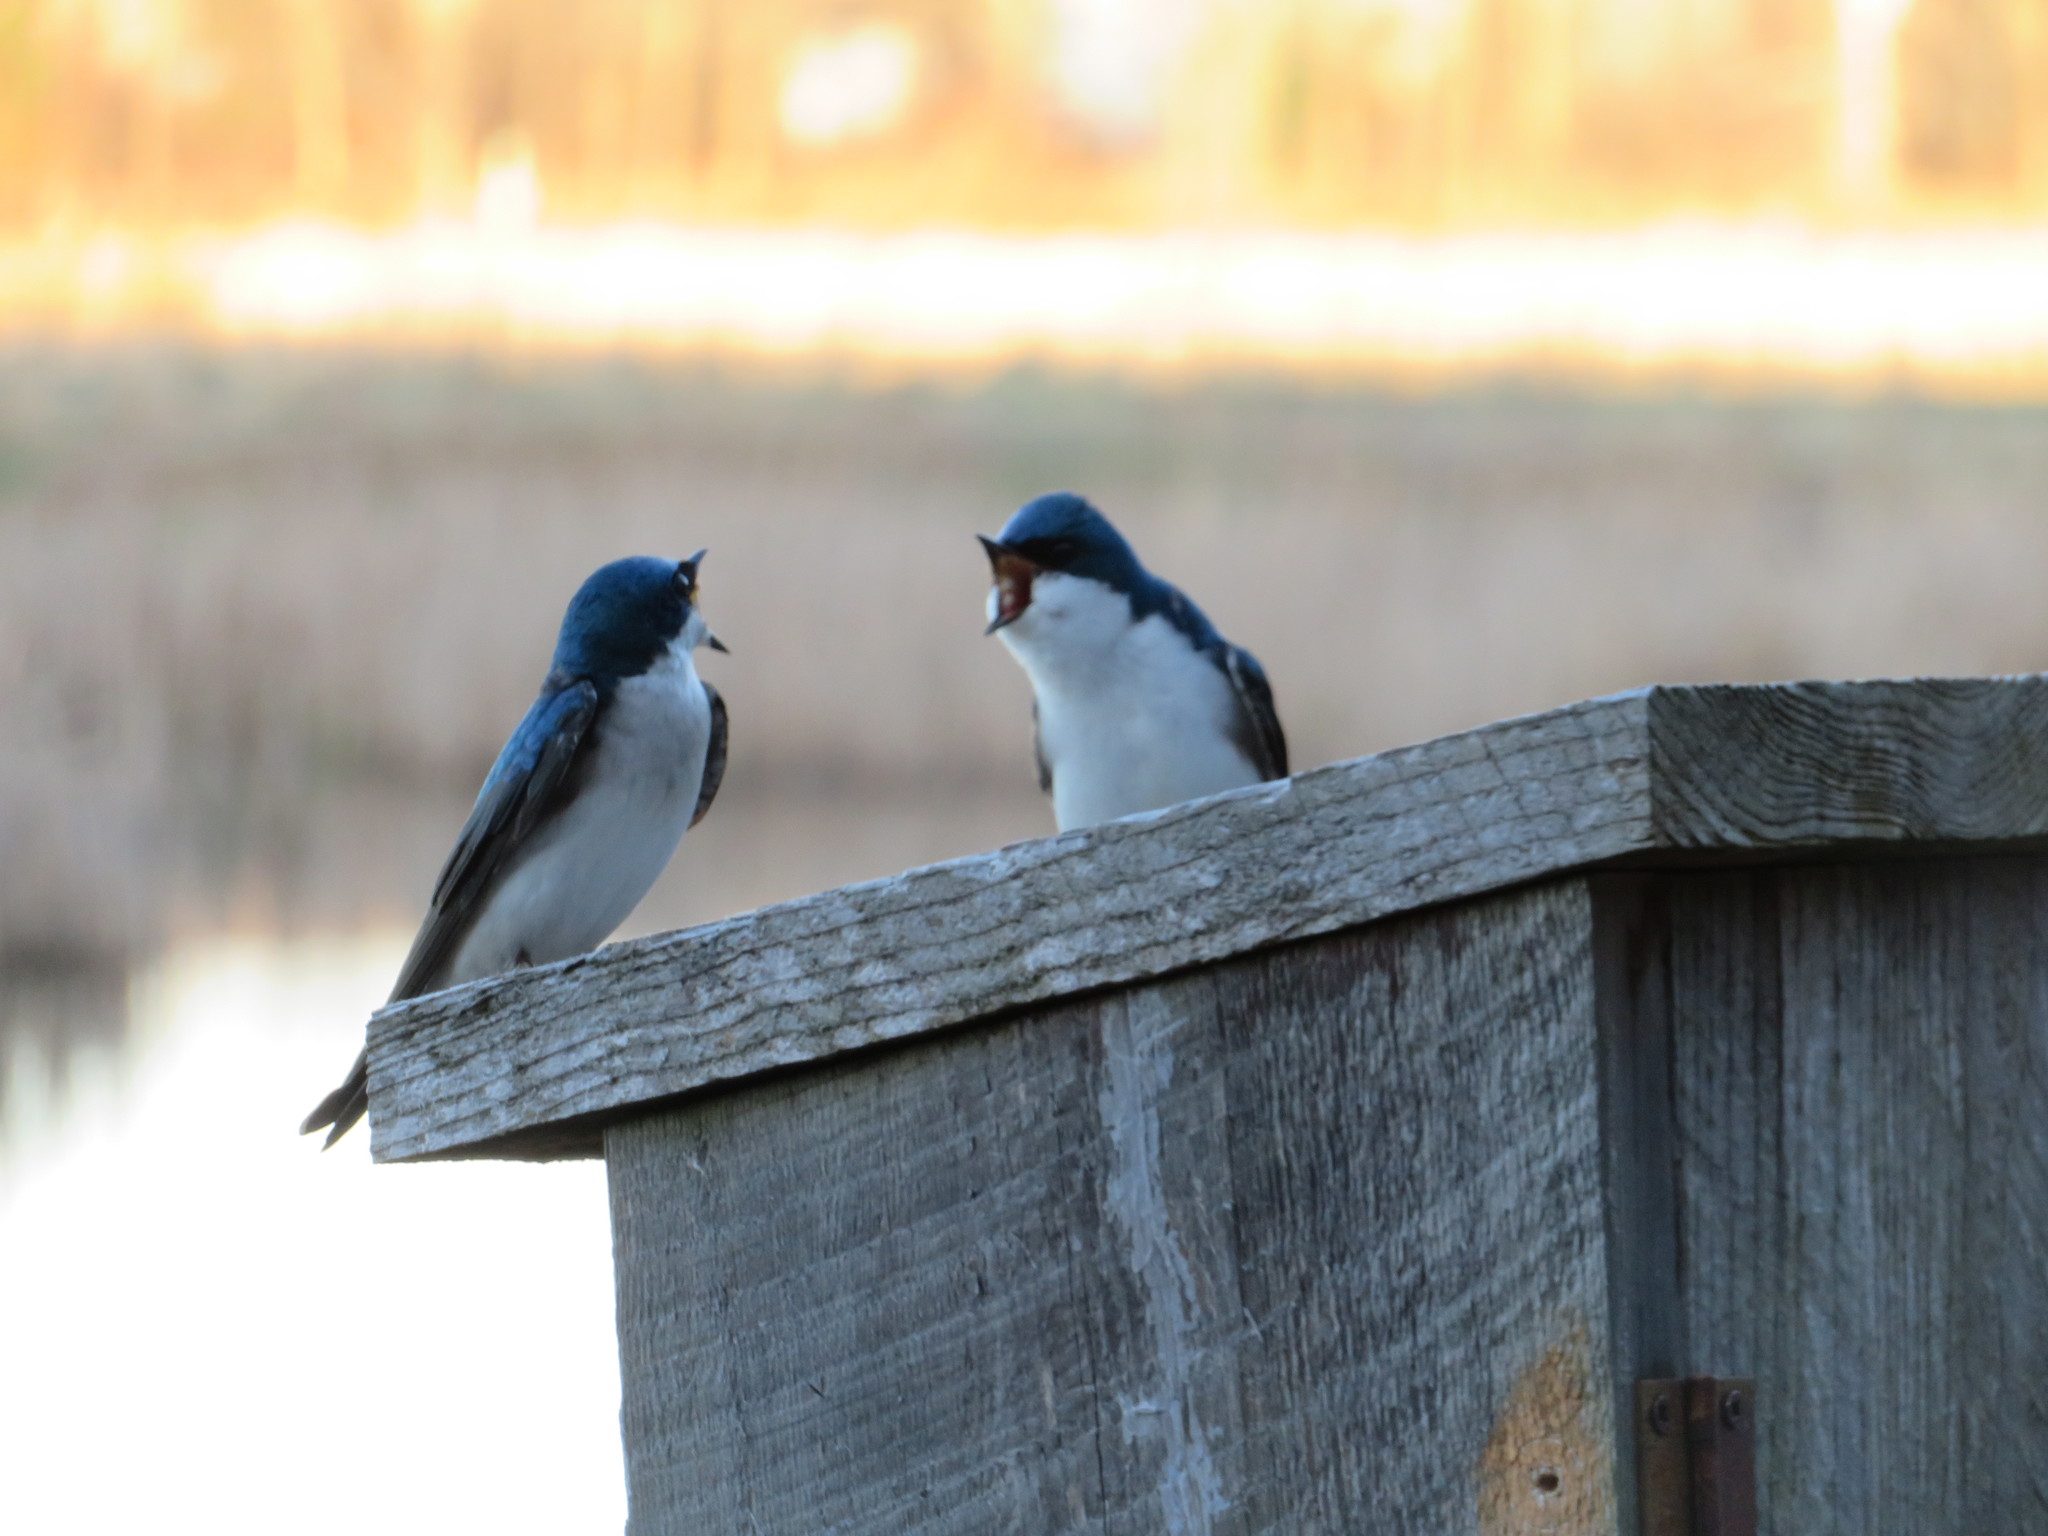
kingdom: Animalia
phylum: Chordata
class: Aves
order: Passeriformes
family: Hirundinidae
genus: Tachycineta
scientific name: Tachycineta bicolor
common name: Tree swallow
